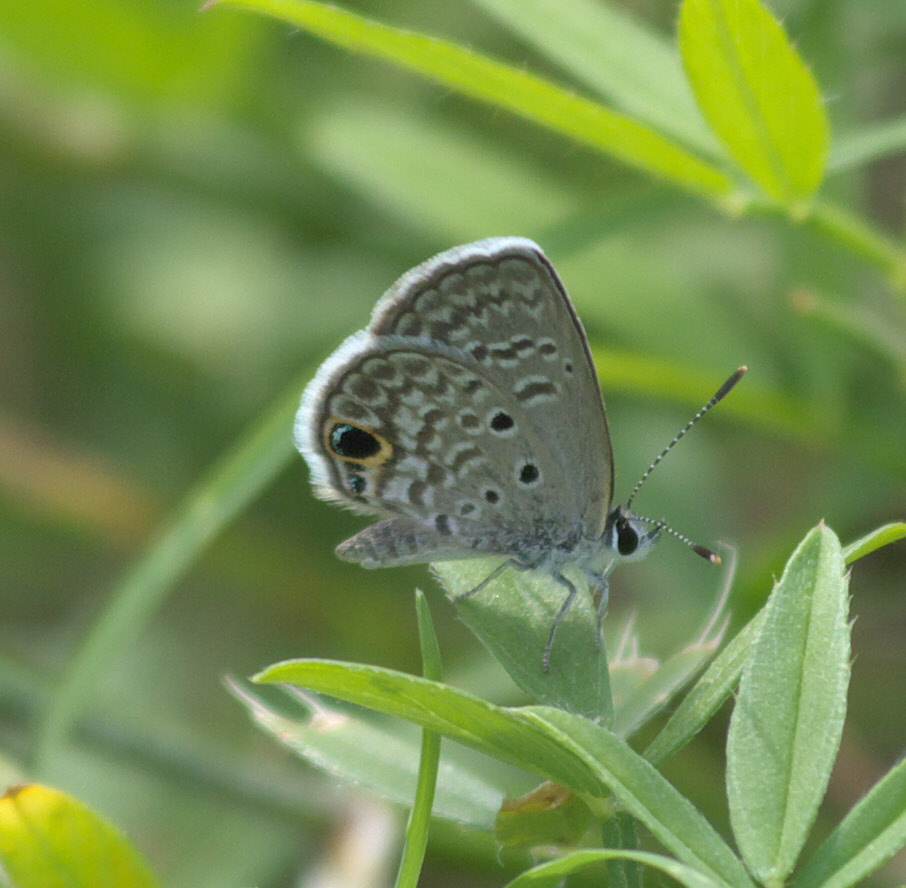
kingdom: Animalia
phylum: Arthropoda
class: Insecta
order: Lepidoptera
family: Lycaenidae
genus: Hemiargus
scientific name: Hemiargus ceraunus
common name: Ceraunus blue
